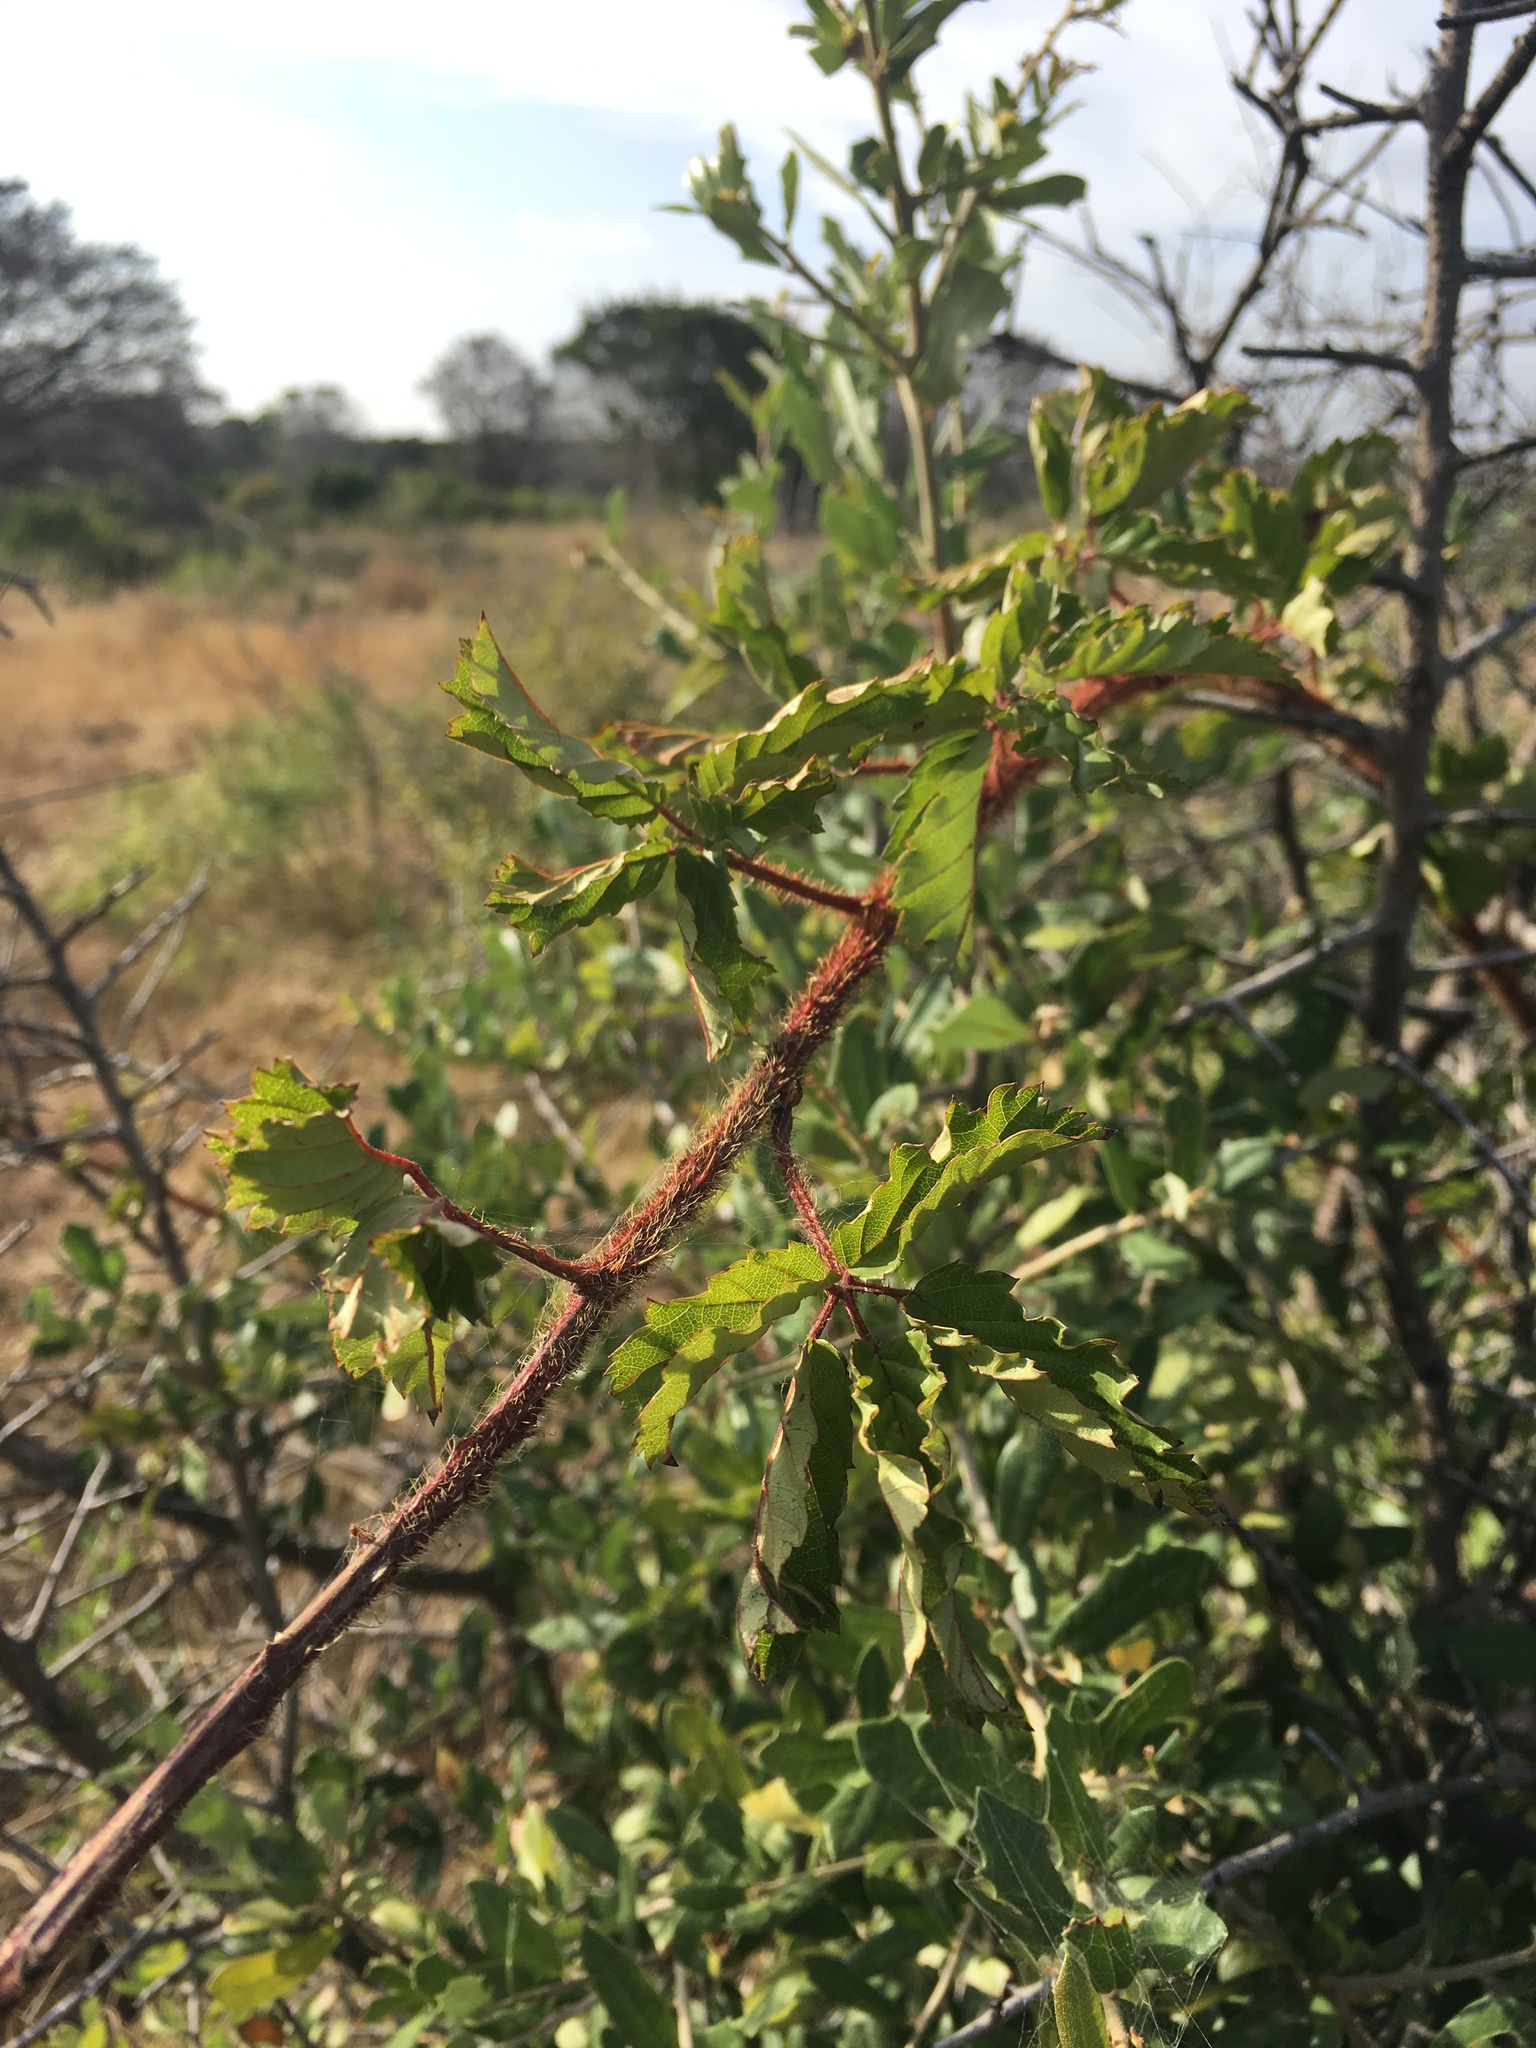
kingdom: Plantae
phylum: Tracheophyta
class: Magnoliopsida
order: Rosales
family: Rosaceae
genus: Rubus
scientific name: Rubus trivialis
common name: Southern dewberry
